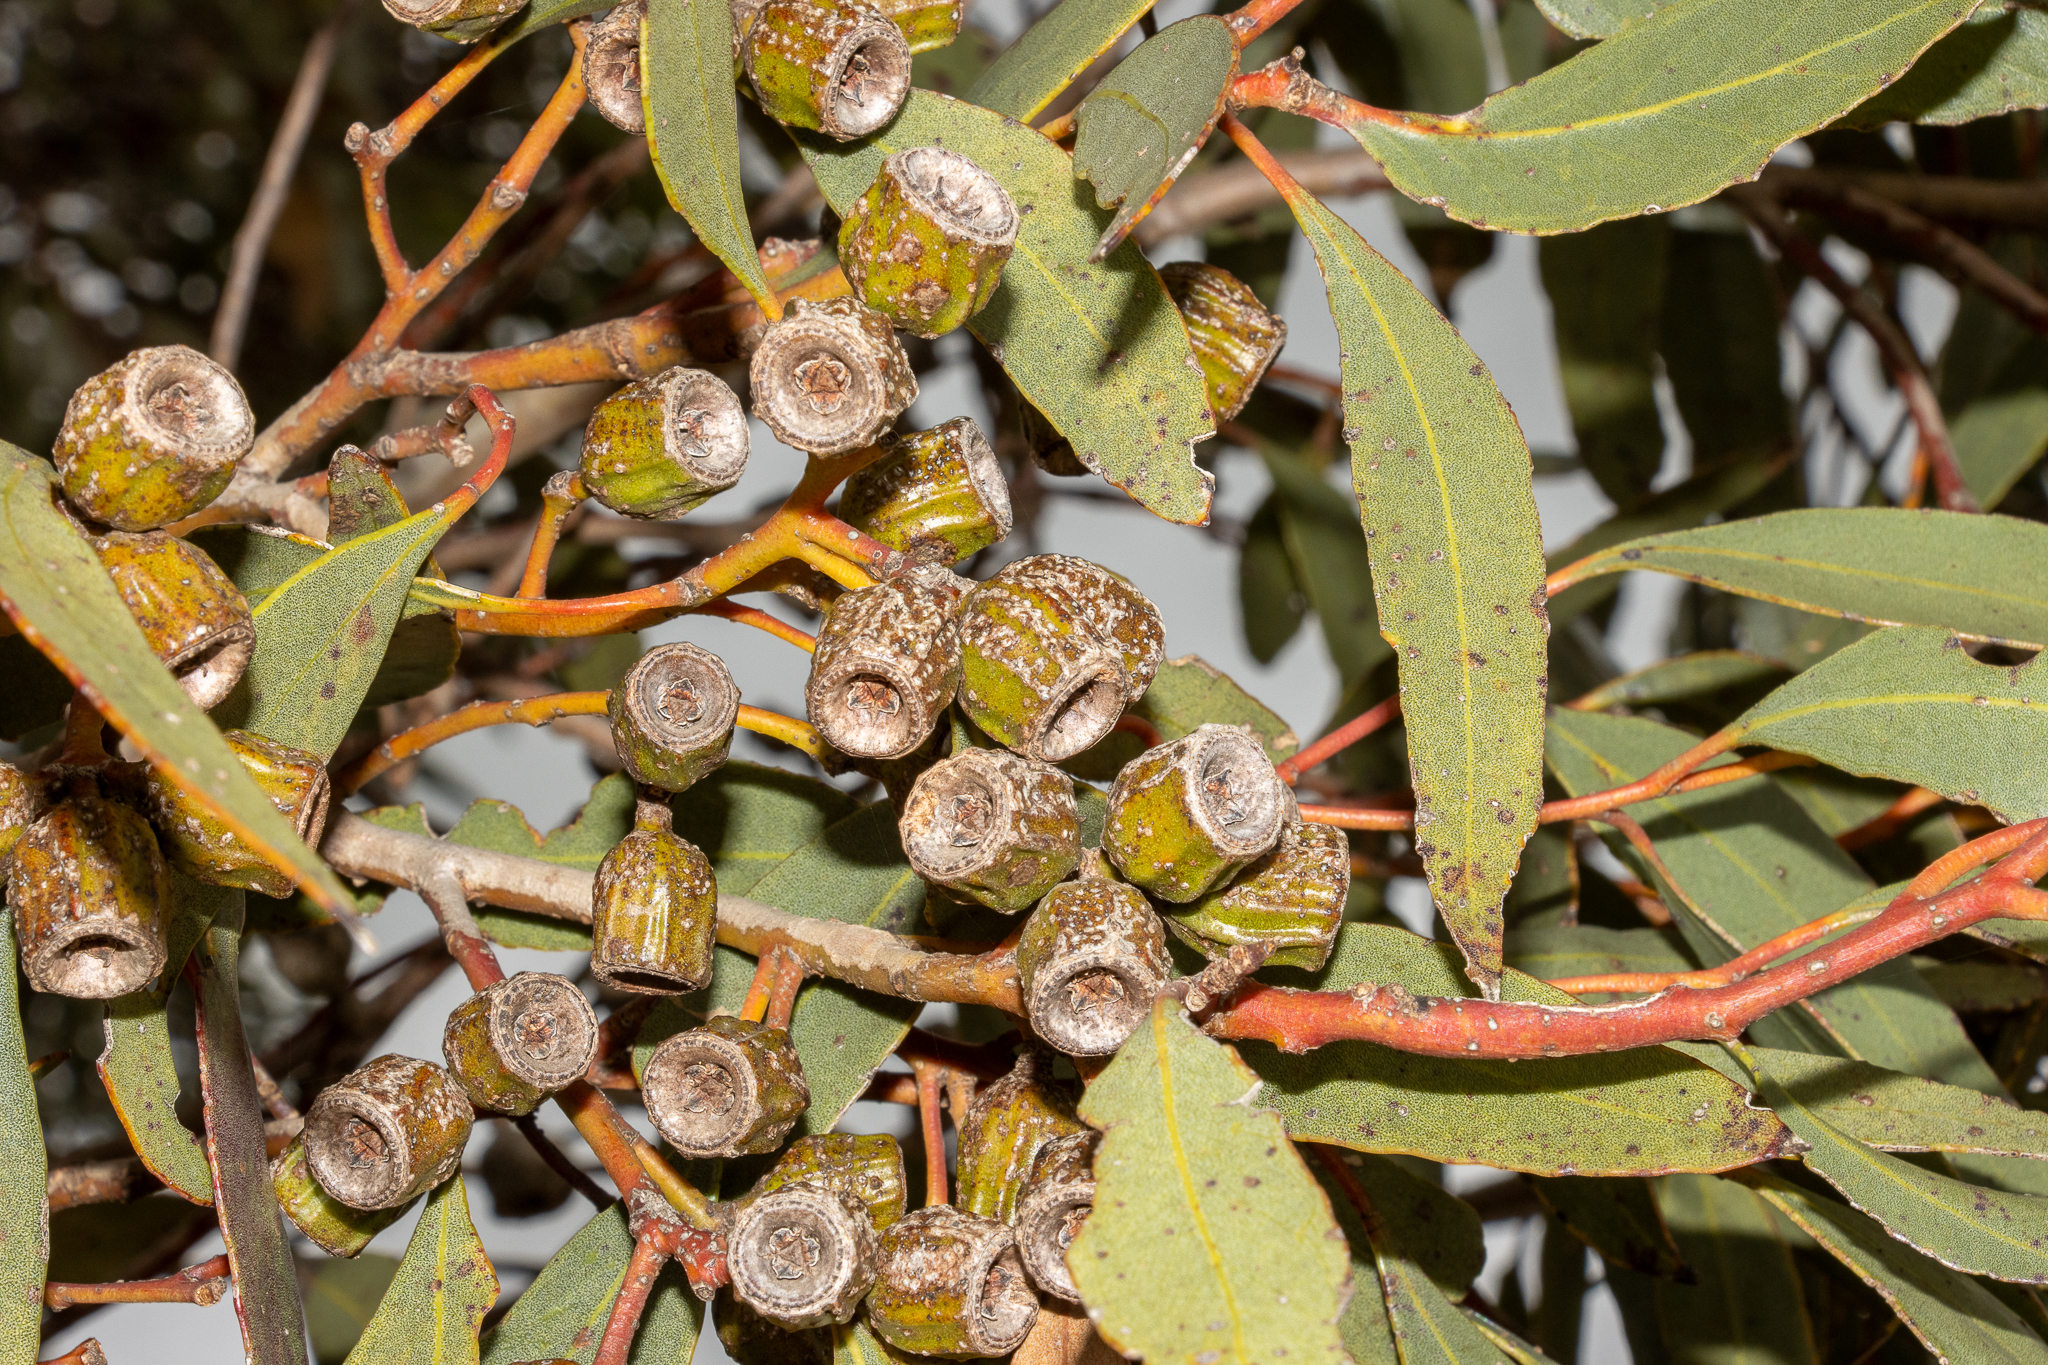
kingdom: Plantae
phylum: Tracheophyta
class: Magnoliopsida
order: Myrtales
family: Myrtaceae
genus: Eucalyptus
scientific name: Eucalyptus incrassata
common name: Ridge-fruit mallee
